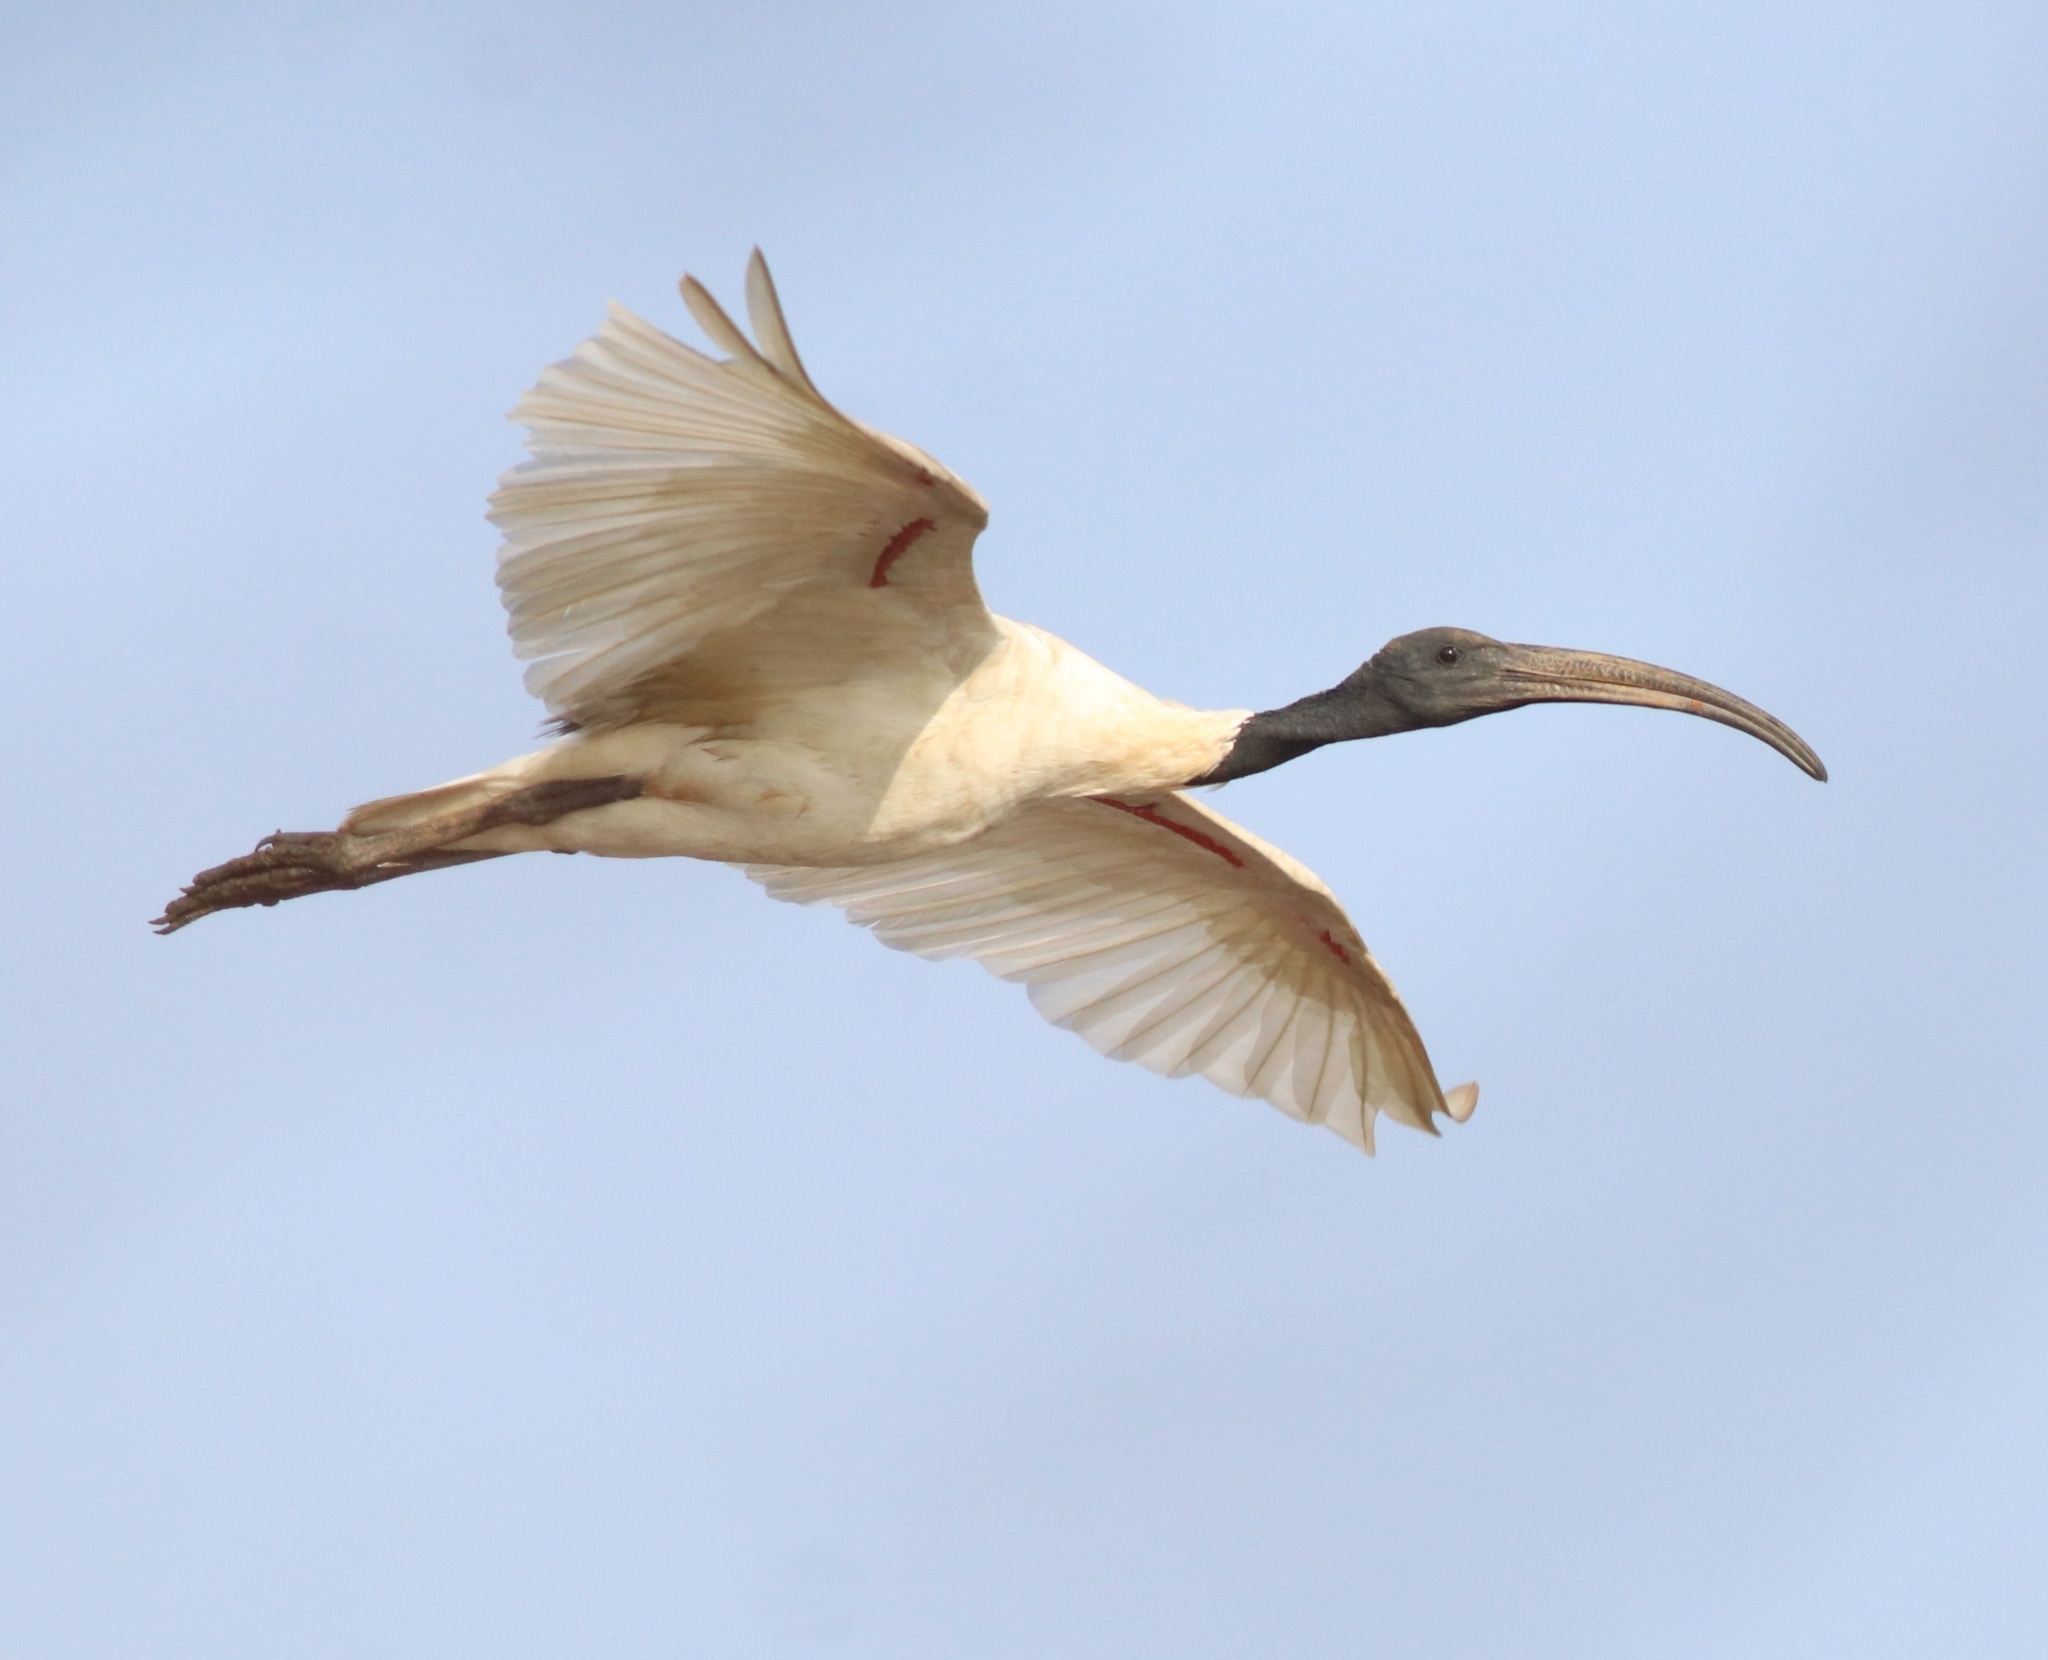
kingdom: Animalia
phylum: Chordata
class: Aves
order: Pelecaniformes
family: Threskiornithidae
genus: Threskiornis
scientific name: Threskiornis melanocephalus
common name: Black-headed ibis
